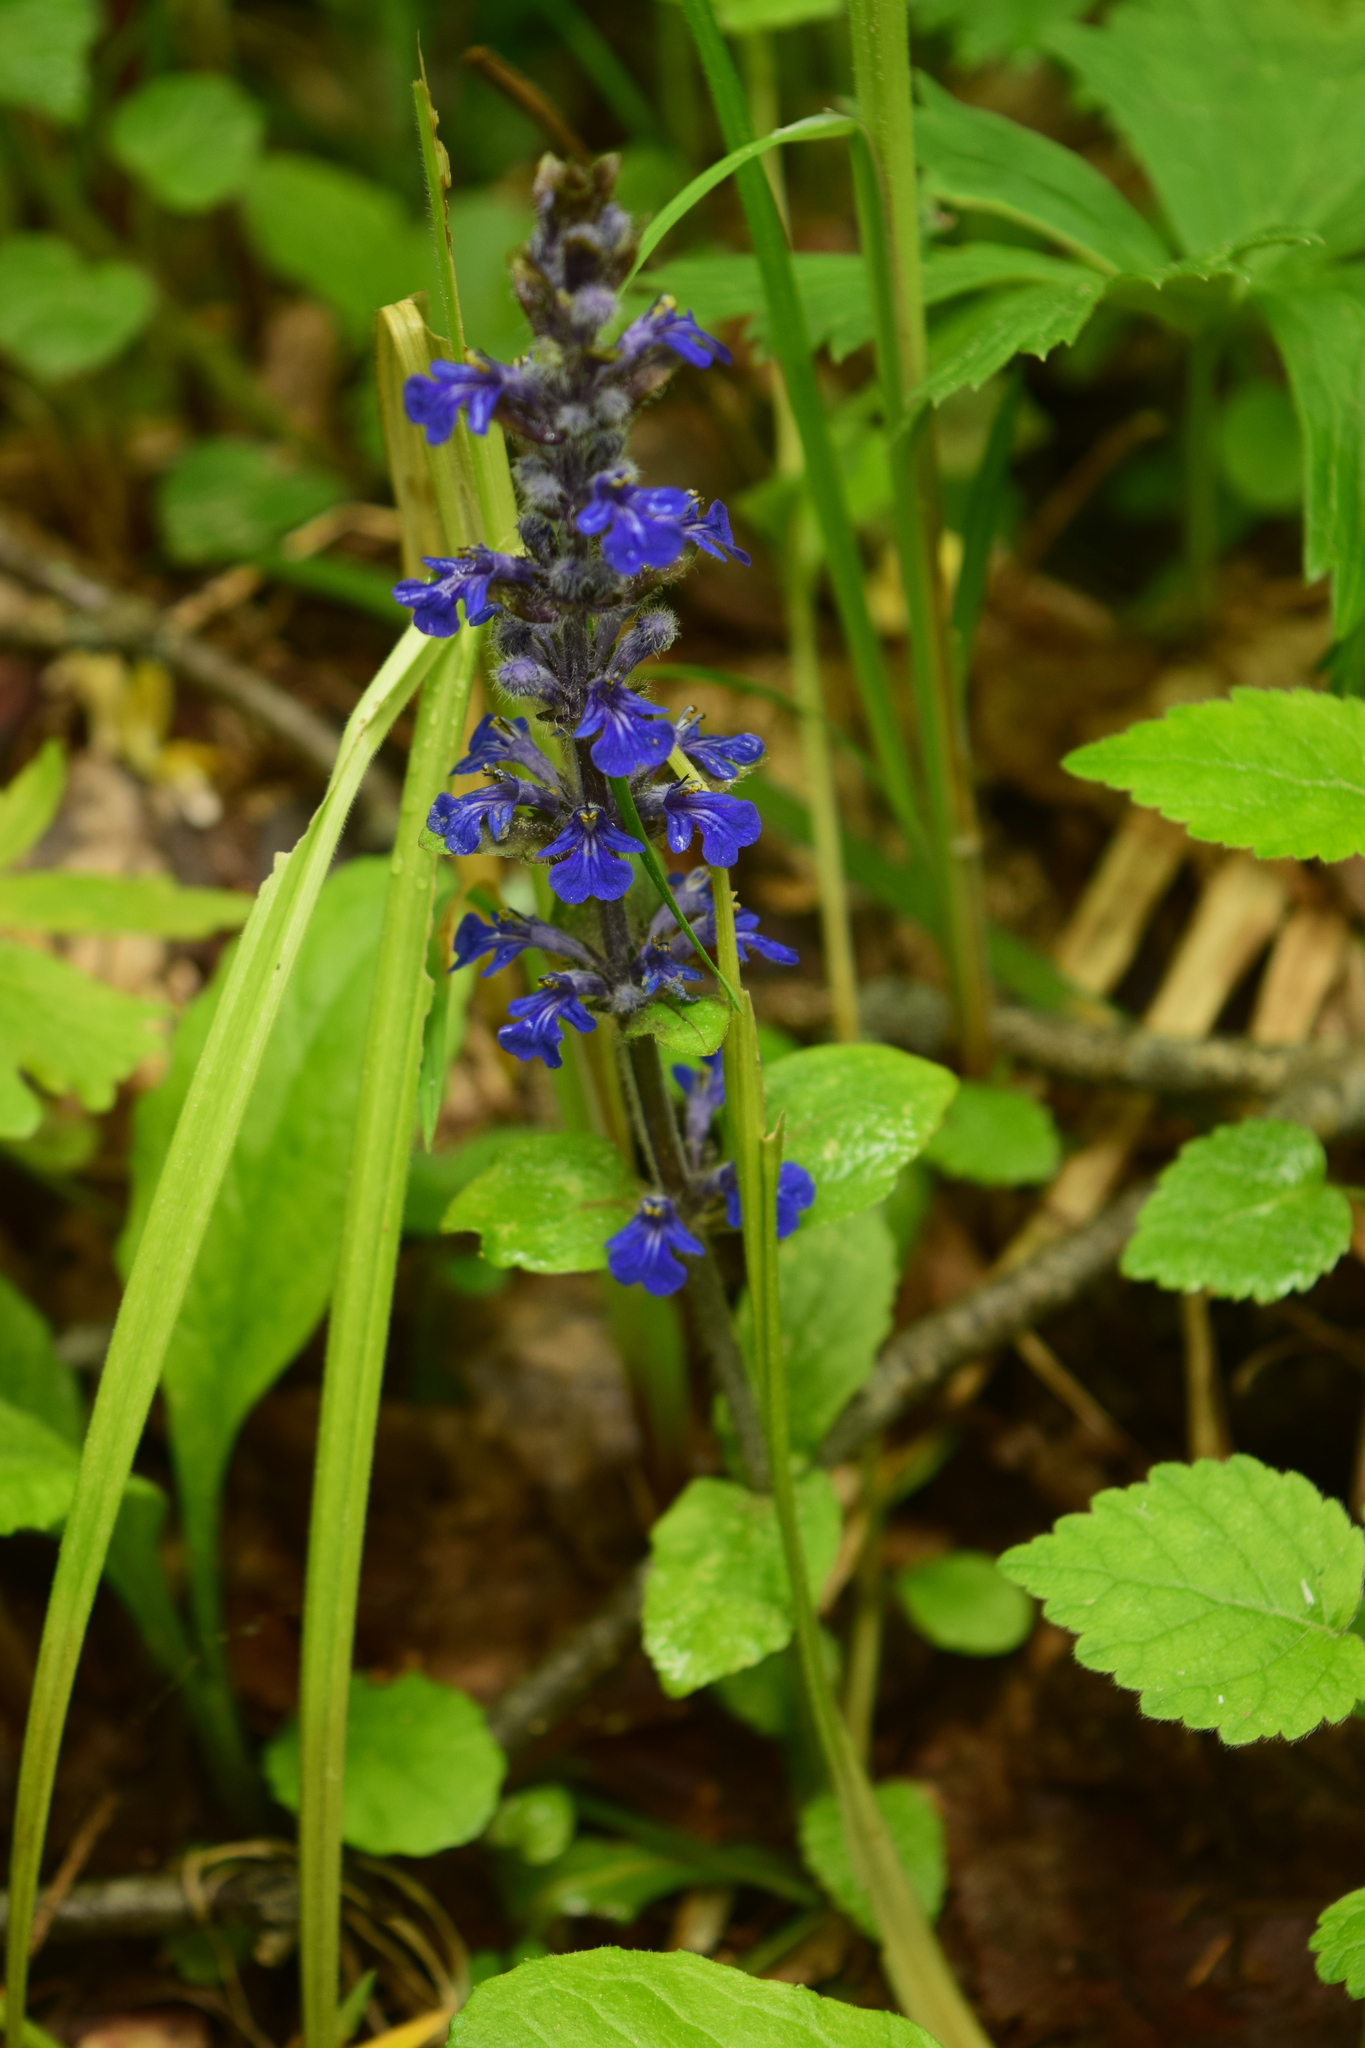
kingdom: Plantae
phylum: Tracheophyta
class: Magnoliopsida
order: Lamiales
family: Lamiaceae
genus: Ajuga
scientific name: Ajuga reptans
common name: Bugle
